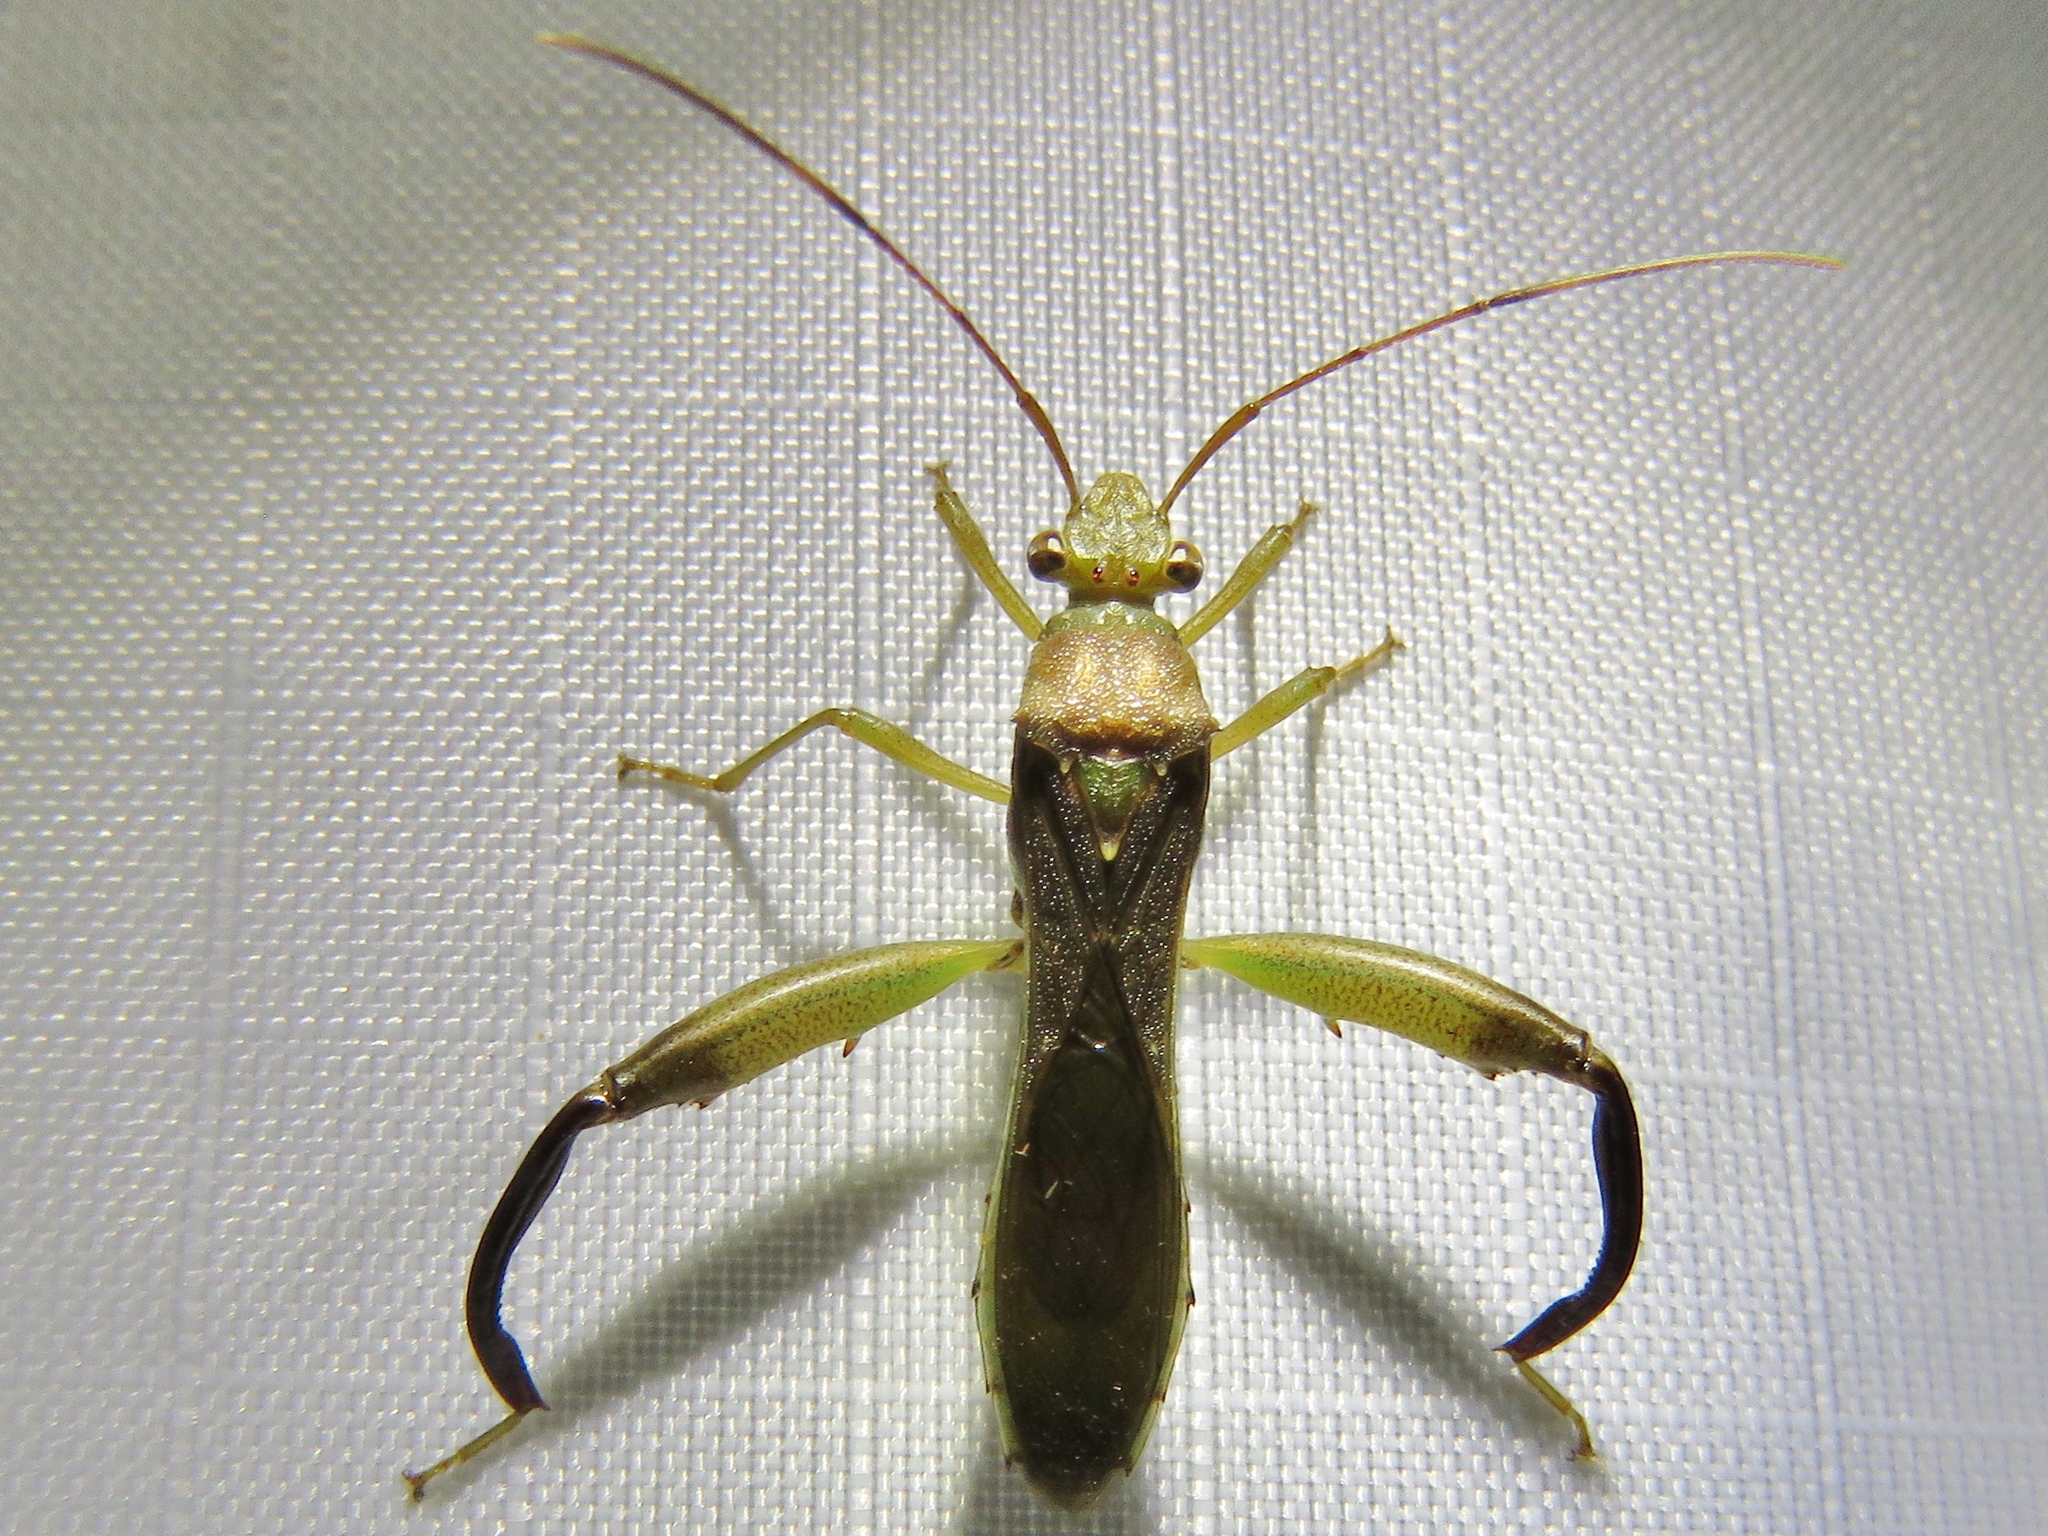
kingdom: Animalia
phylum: Arthropoda
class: Insecta
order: Hemiptera
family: Alydidae
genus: Hyalymenus
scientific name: Hyalymenus tarsatus
